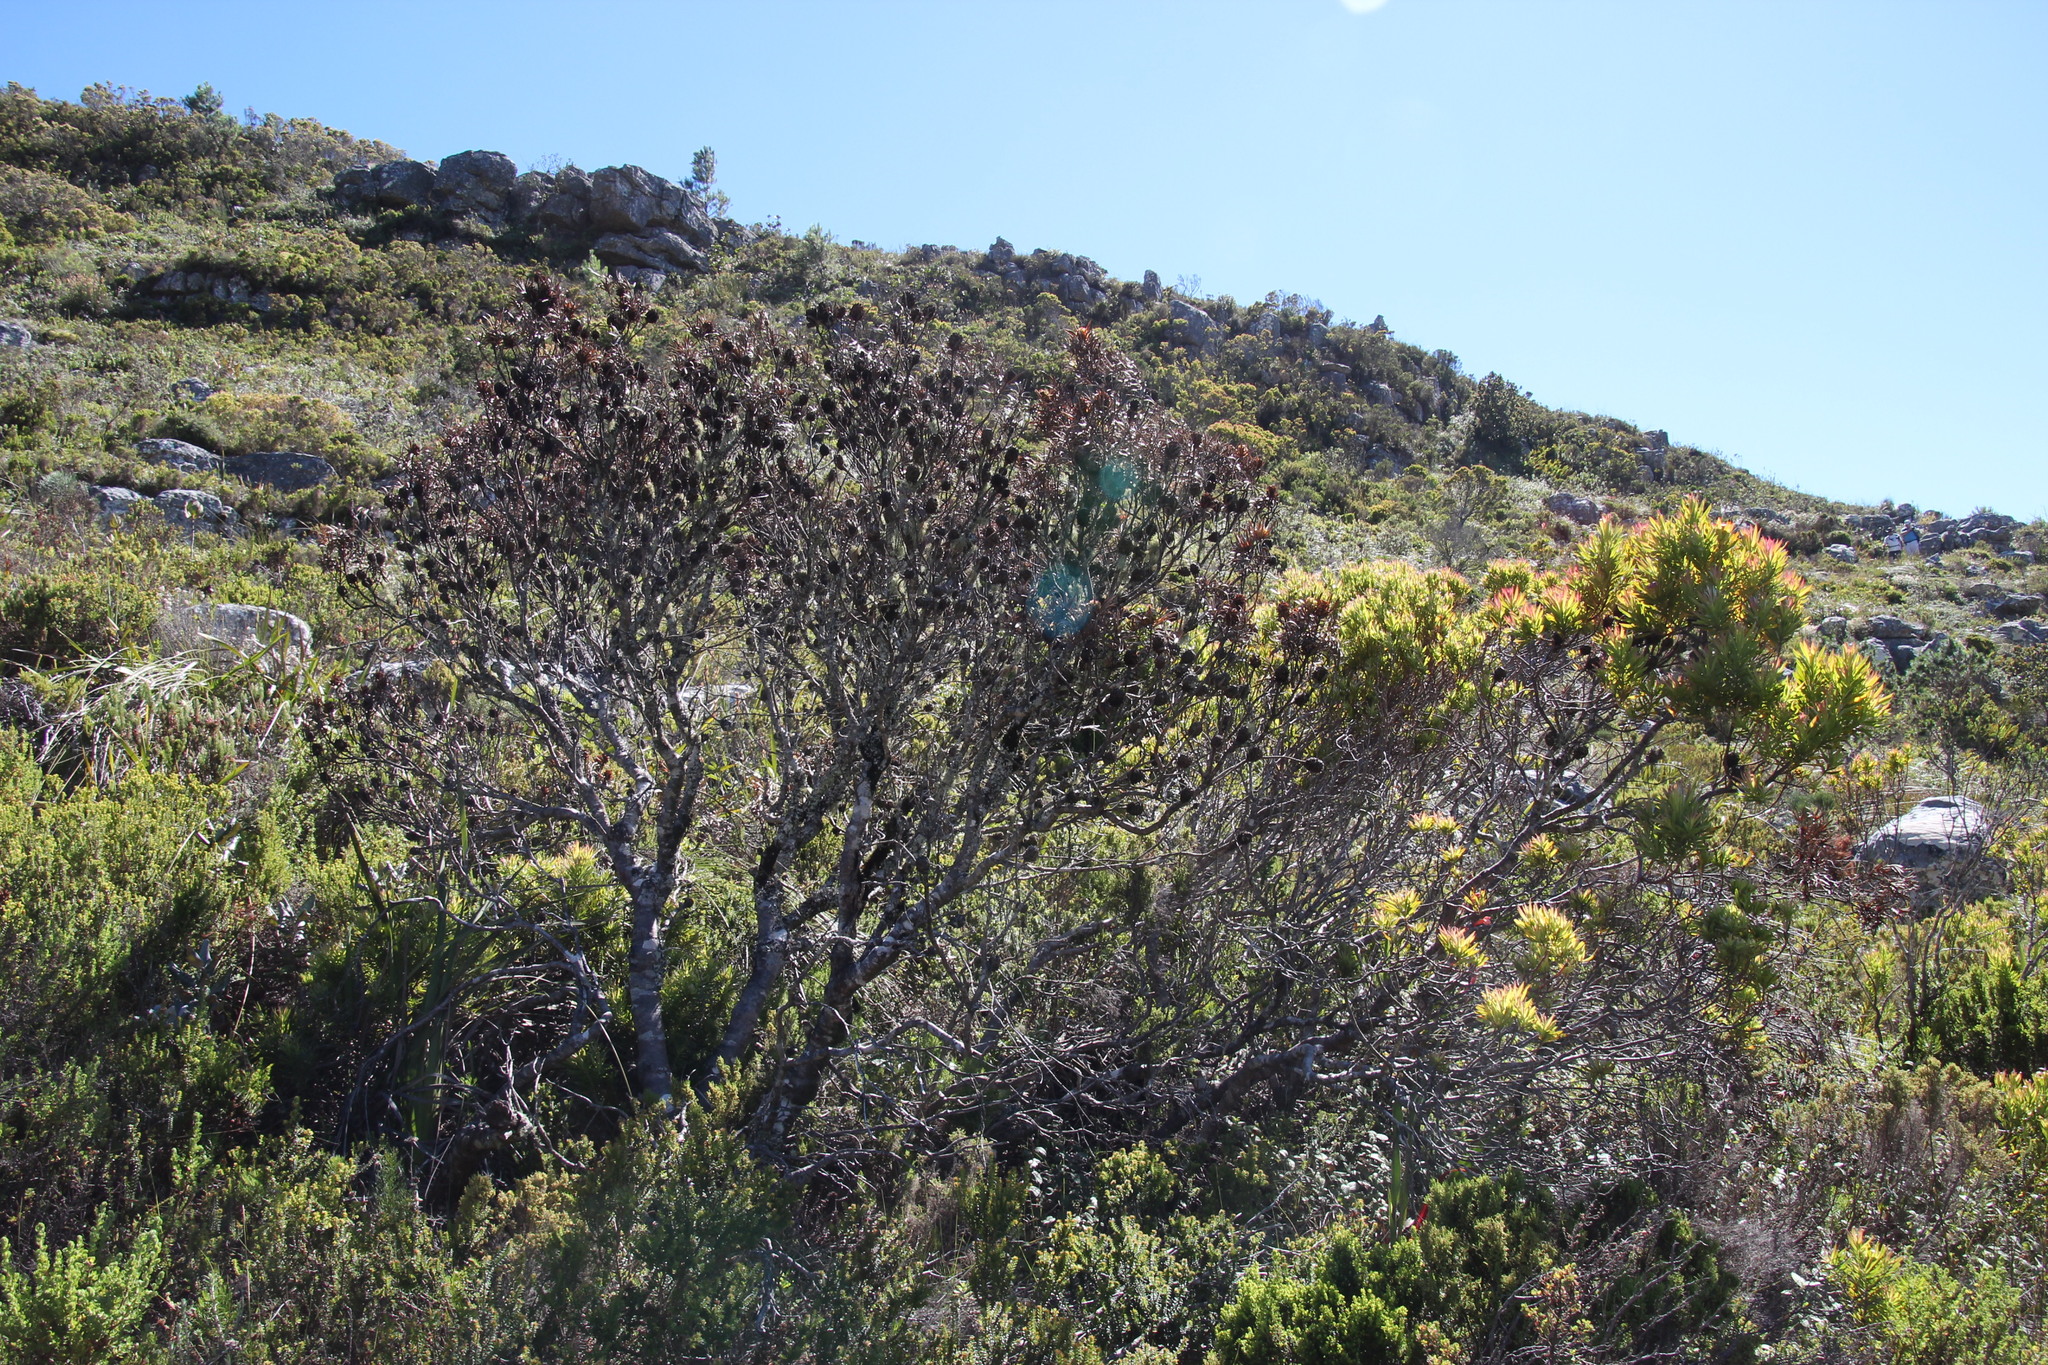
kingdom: Plantae
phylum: Tracheophyta
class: Magnoliopsida
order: Proteales
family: Proteaceae
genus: Leucadendron
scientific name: Leucadendron xanthoconus
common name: Sickle-leaf conebush
